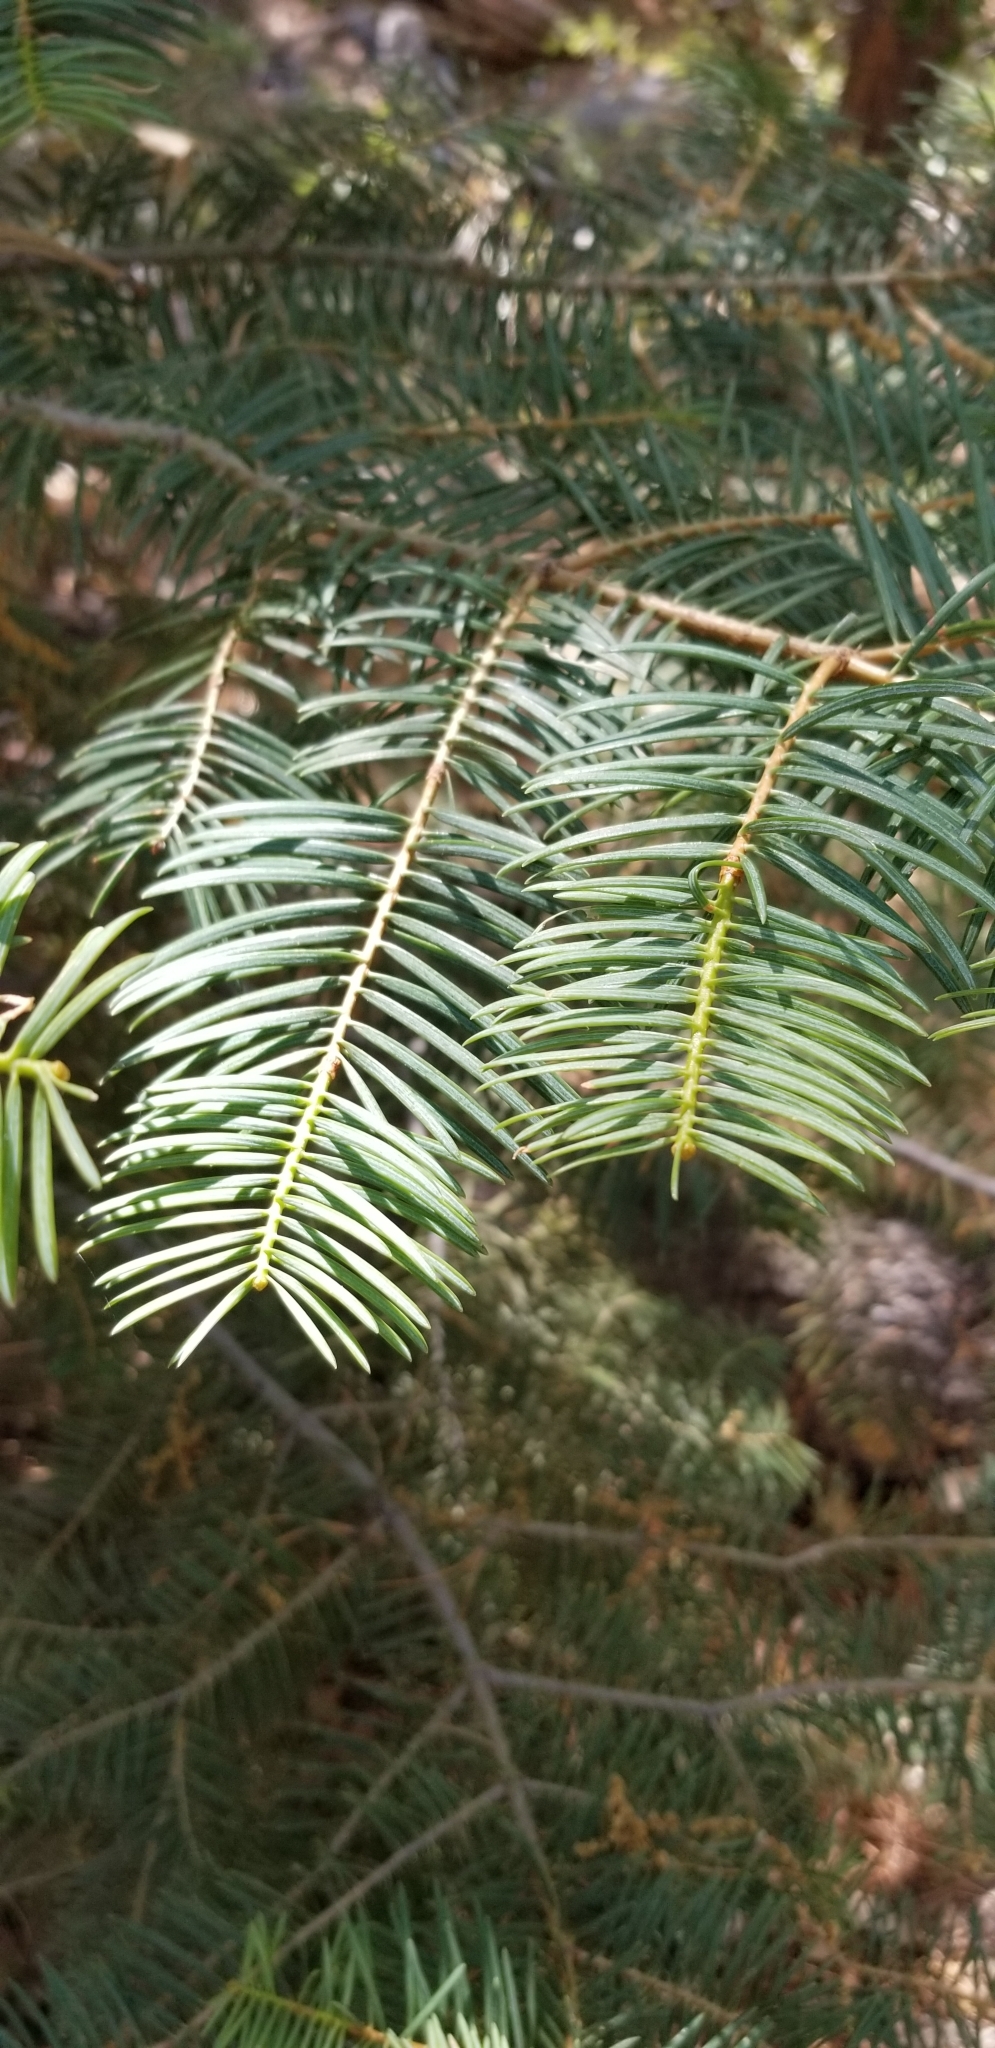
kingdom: Plantae
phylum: Tracheophyta
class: Pinopsida
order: Pinales
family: Pinaceae
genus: Abies
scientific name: Abies concolor
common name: Colorado fir
